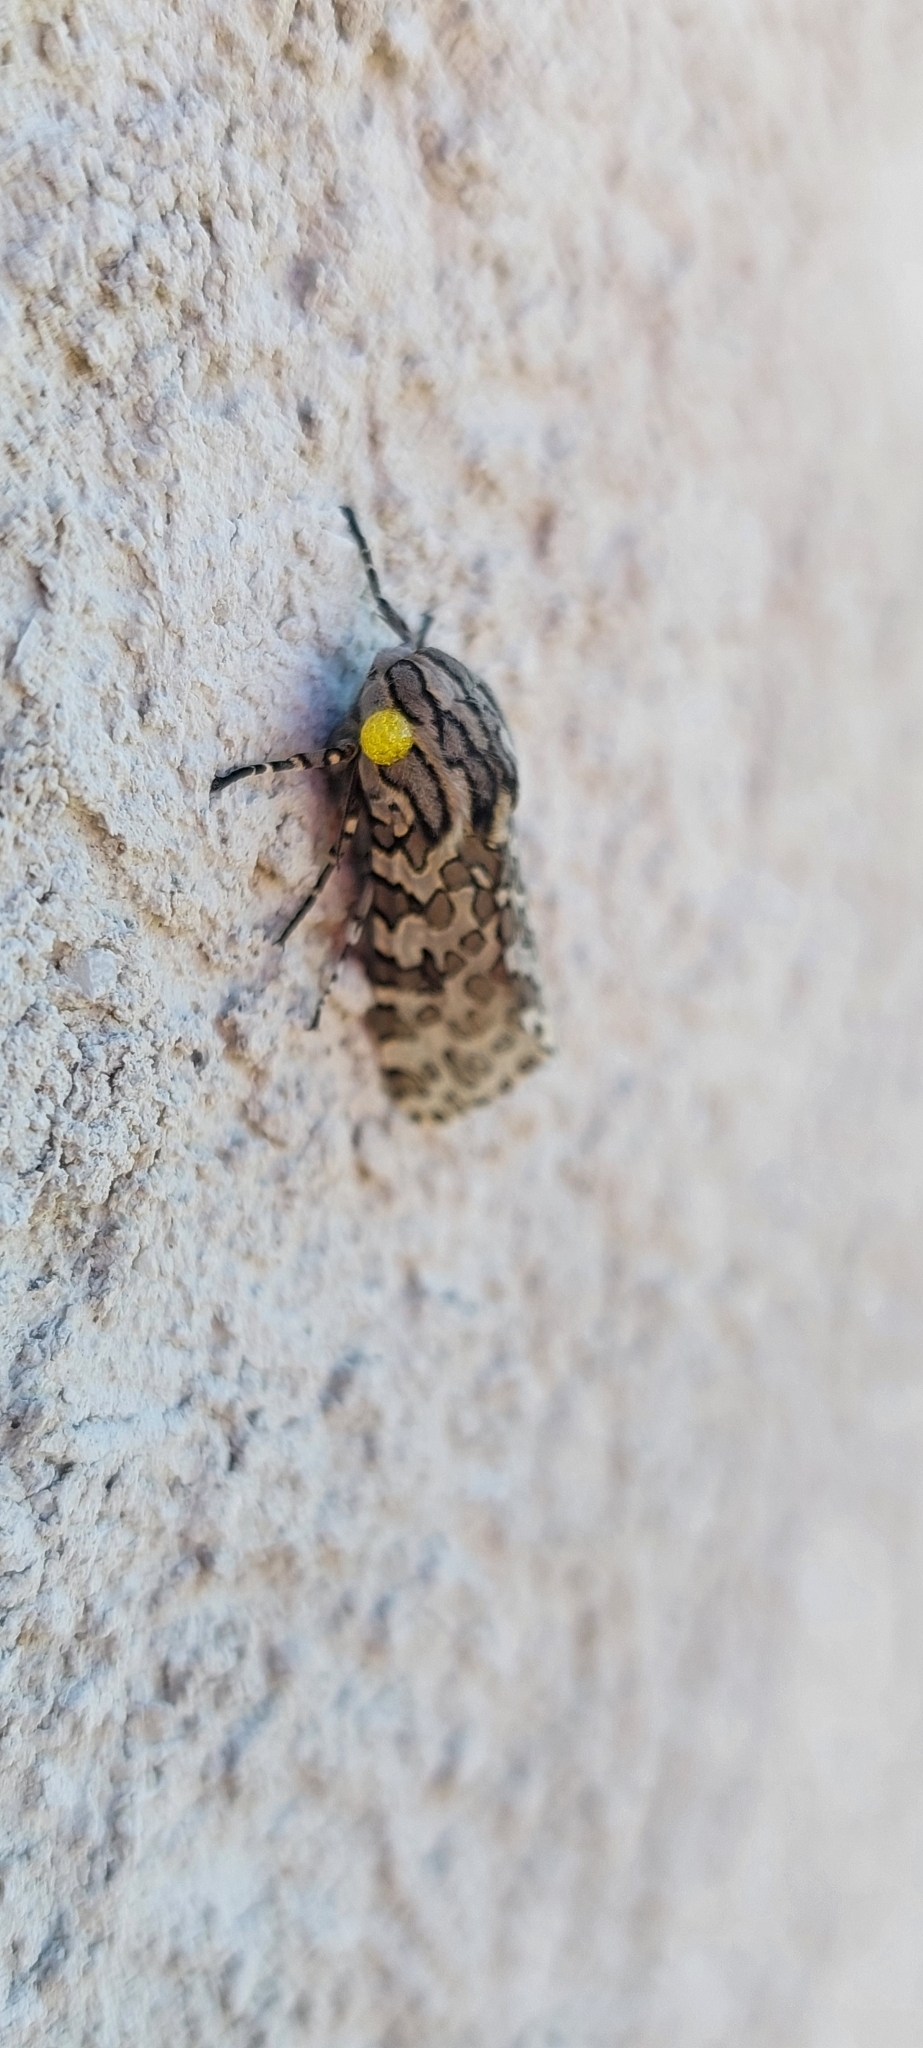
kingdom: Animalia
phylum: Arthropoda
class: Insecta
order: Lepidoptera
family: Erebidae
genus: Hypercompe
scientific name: Hypercompe indecisa
